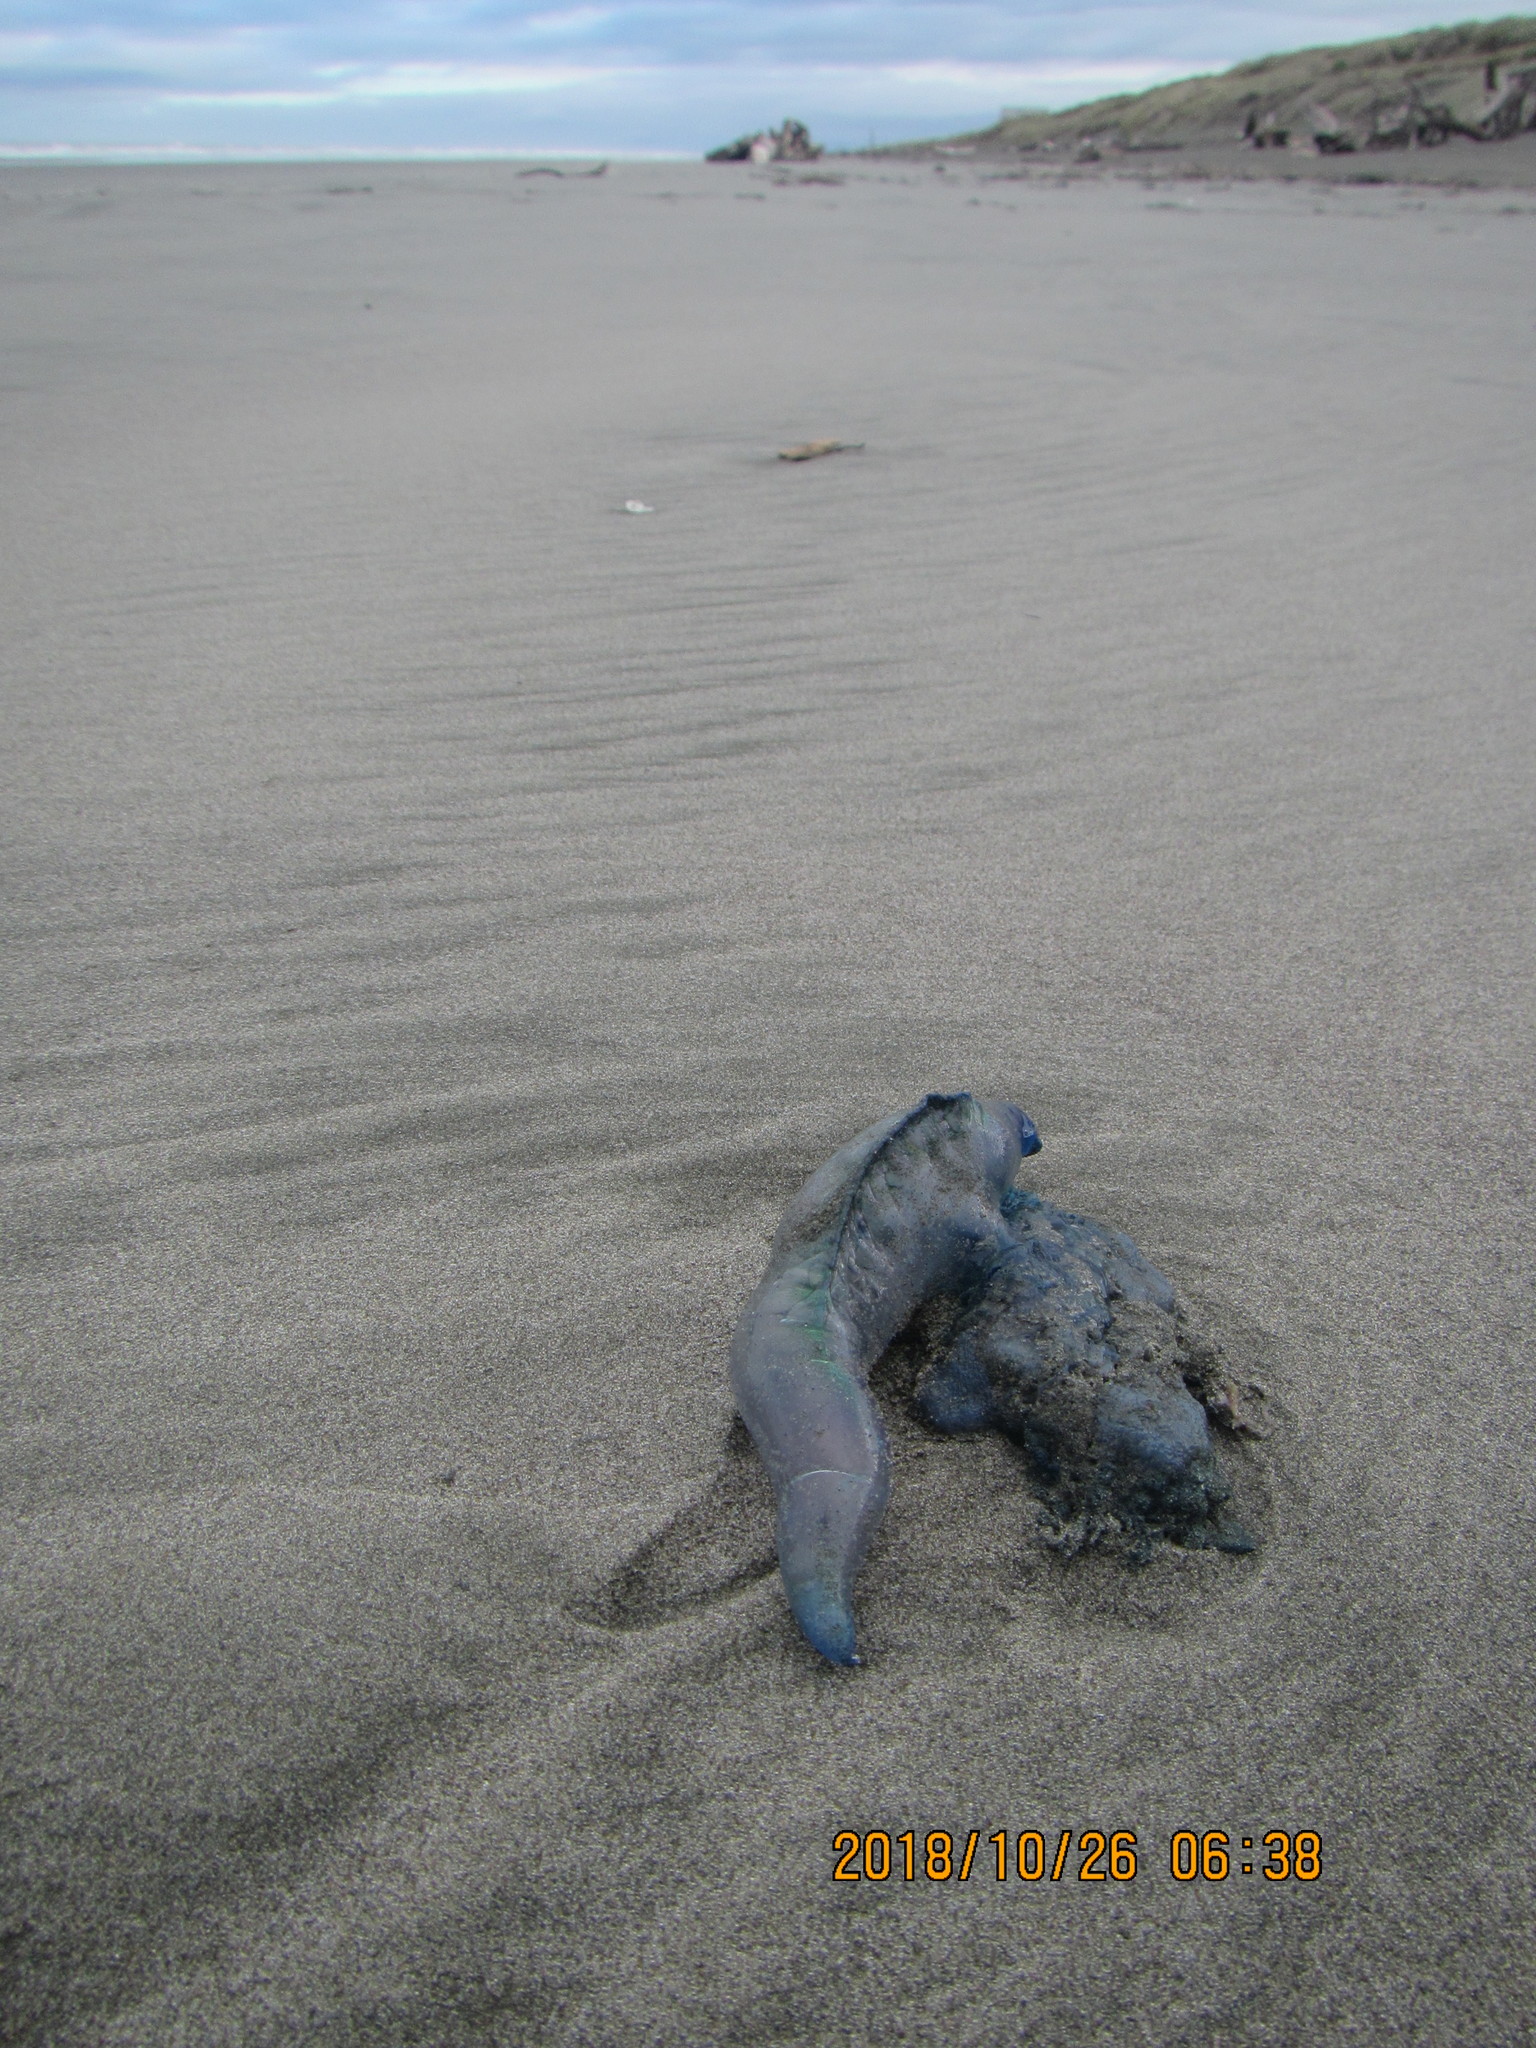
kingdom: Animalia
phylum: Cnidaria
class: Hydrozoa
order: Siphonophorae
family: Physaliidae
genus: Physalia
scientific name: Physalia physalis
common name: Portuguese man-of-war
